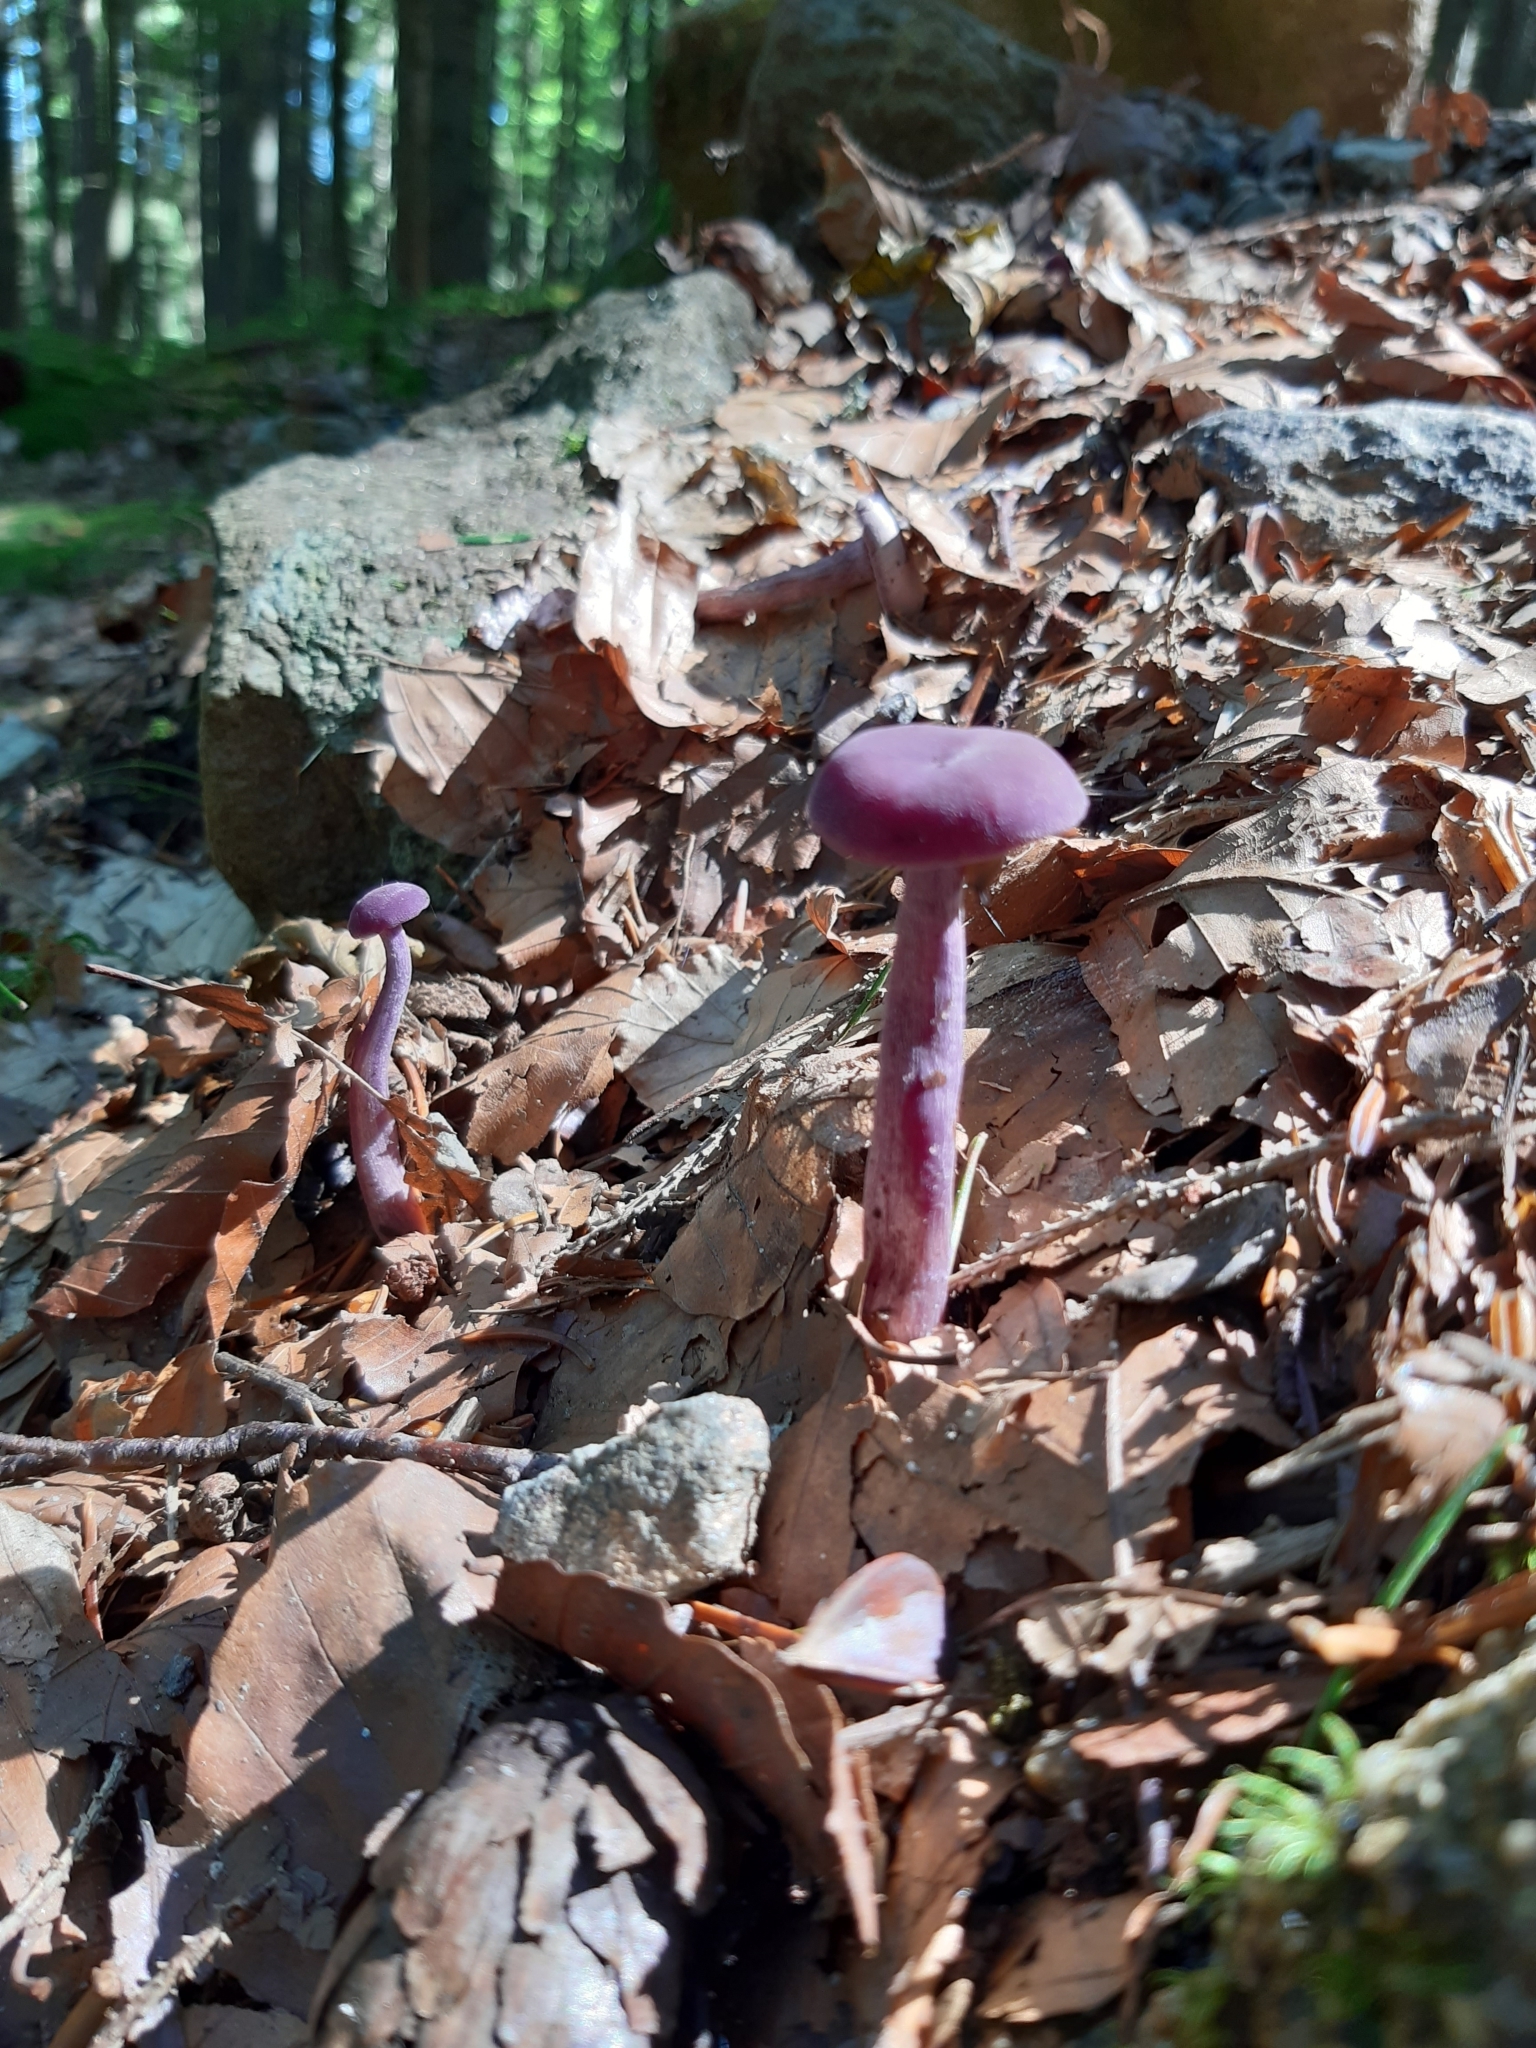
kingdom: Fungi
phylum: Basidiomycota
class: Agaricomycetes
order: Agaricales
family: Hydnangiaceae
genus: Laccaria
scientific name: Laccaria amethystina
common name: Amethyst deceiver
